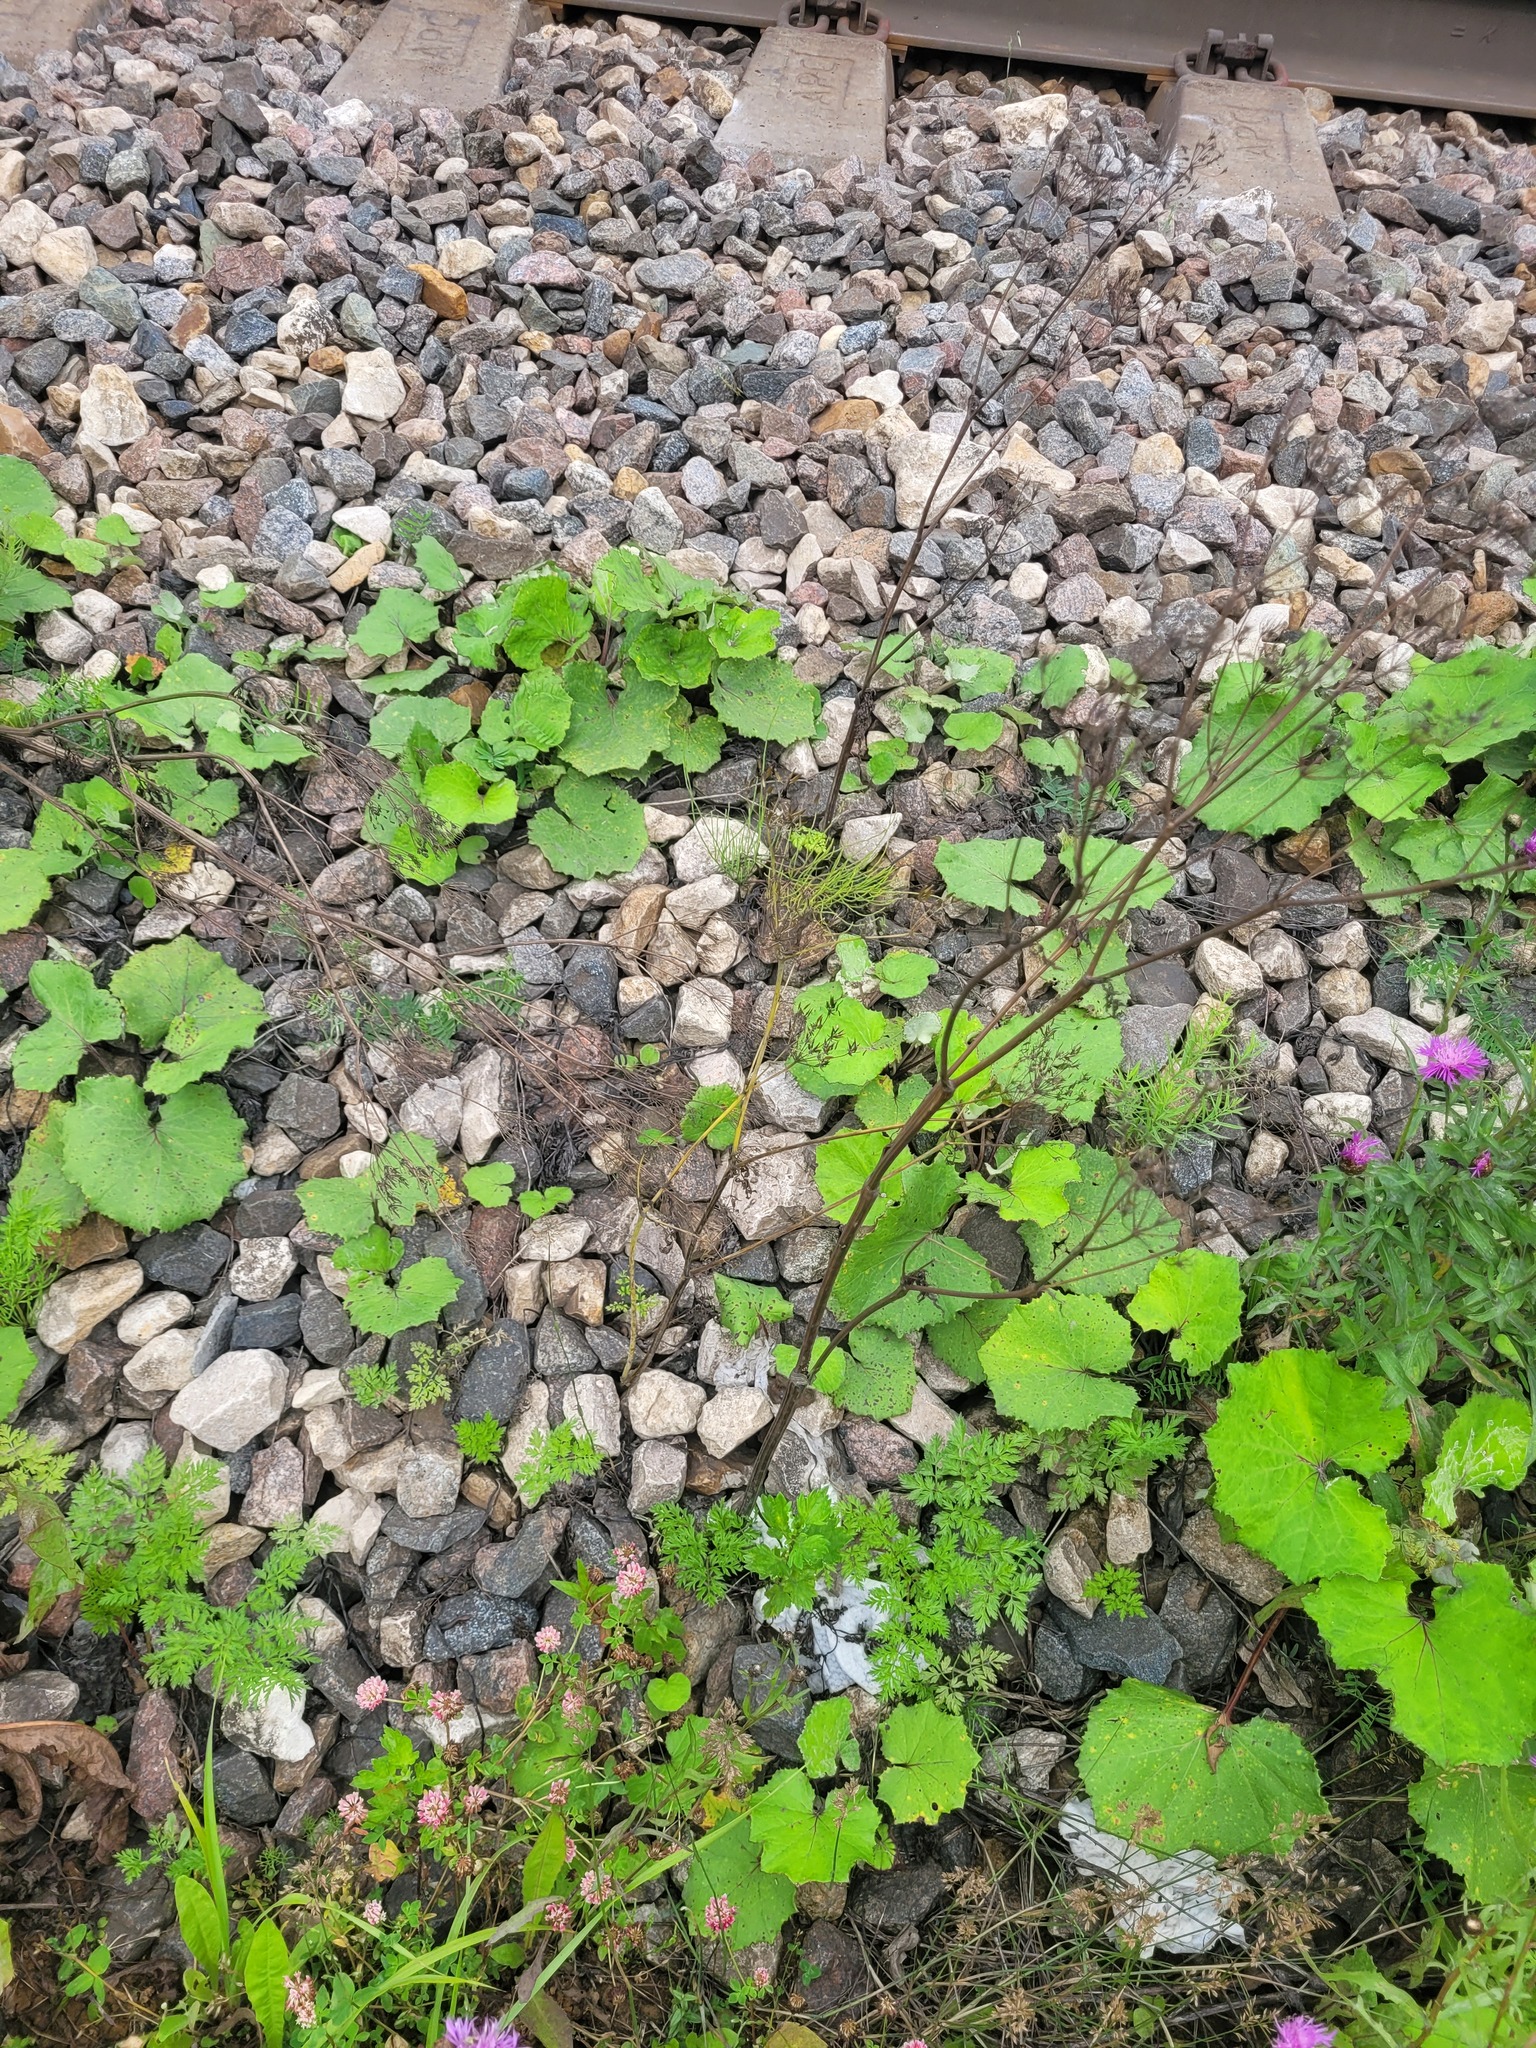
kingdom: Plantae
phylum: Tracheophyta
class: Magnoliopsida
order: Apiales
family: Apiaceae
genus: Anthriscus
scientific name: Anthriscus sylvestris
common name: Cow parsley
